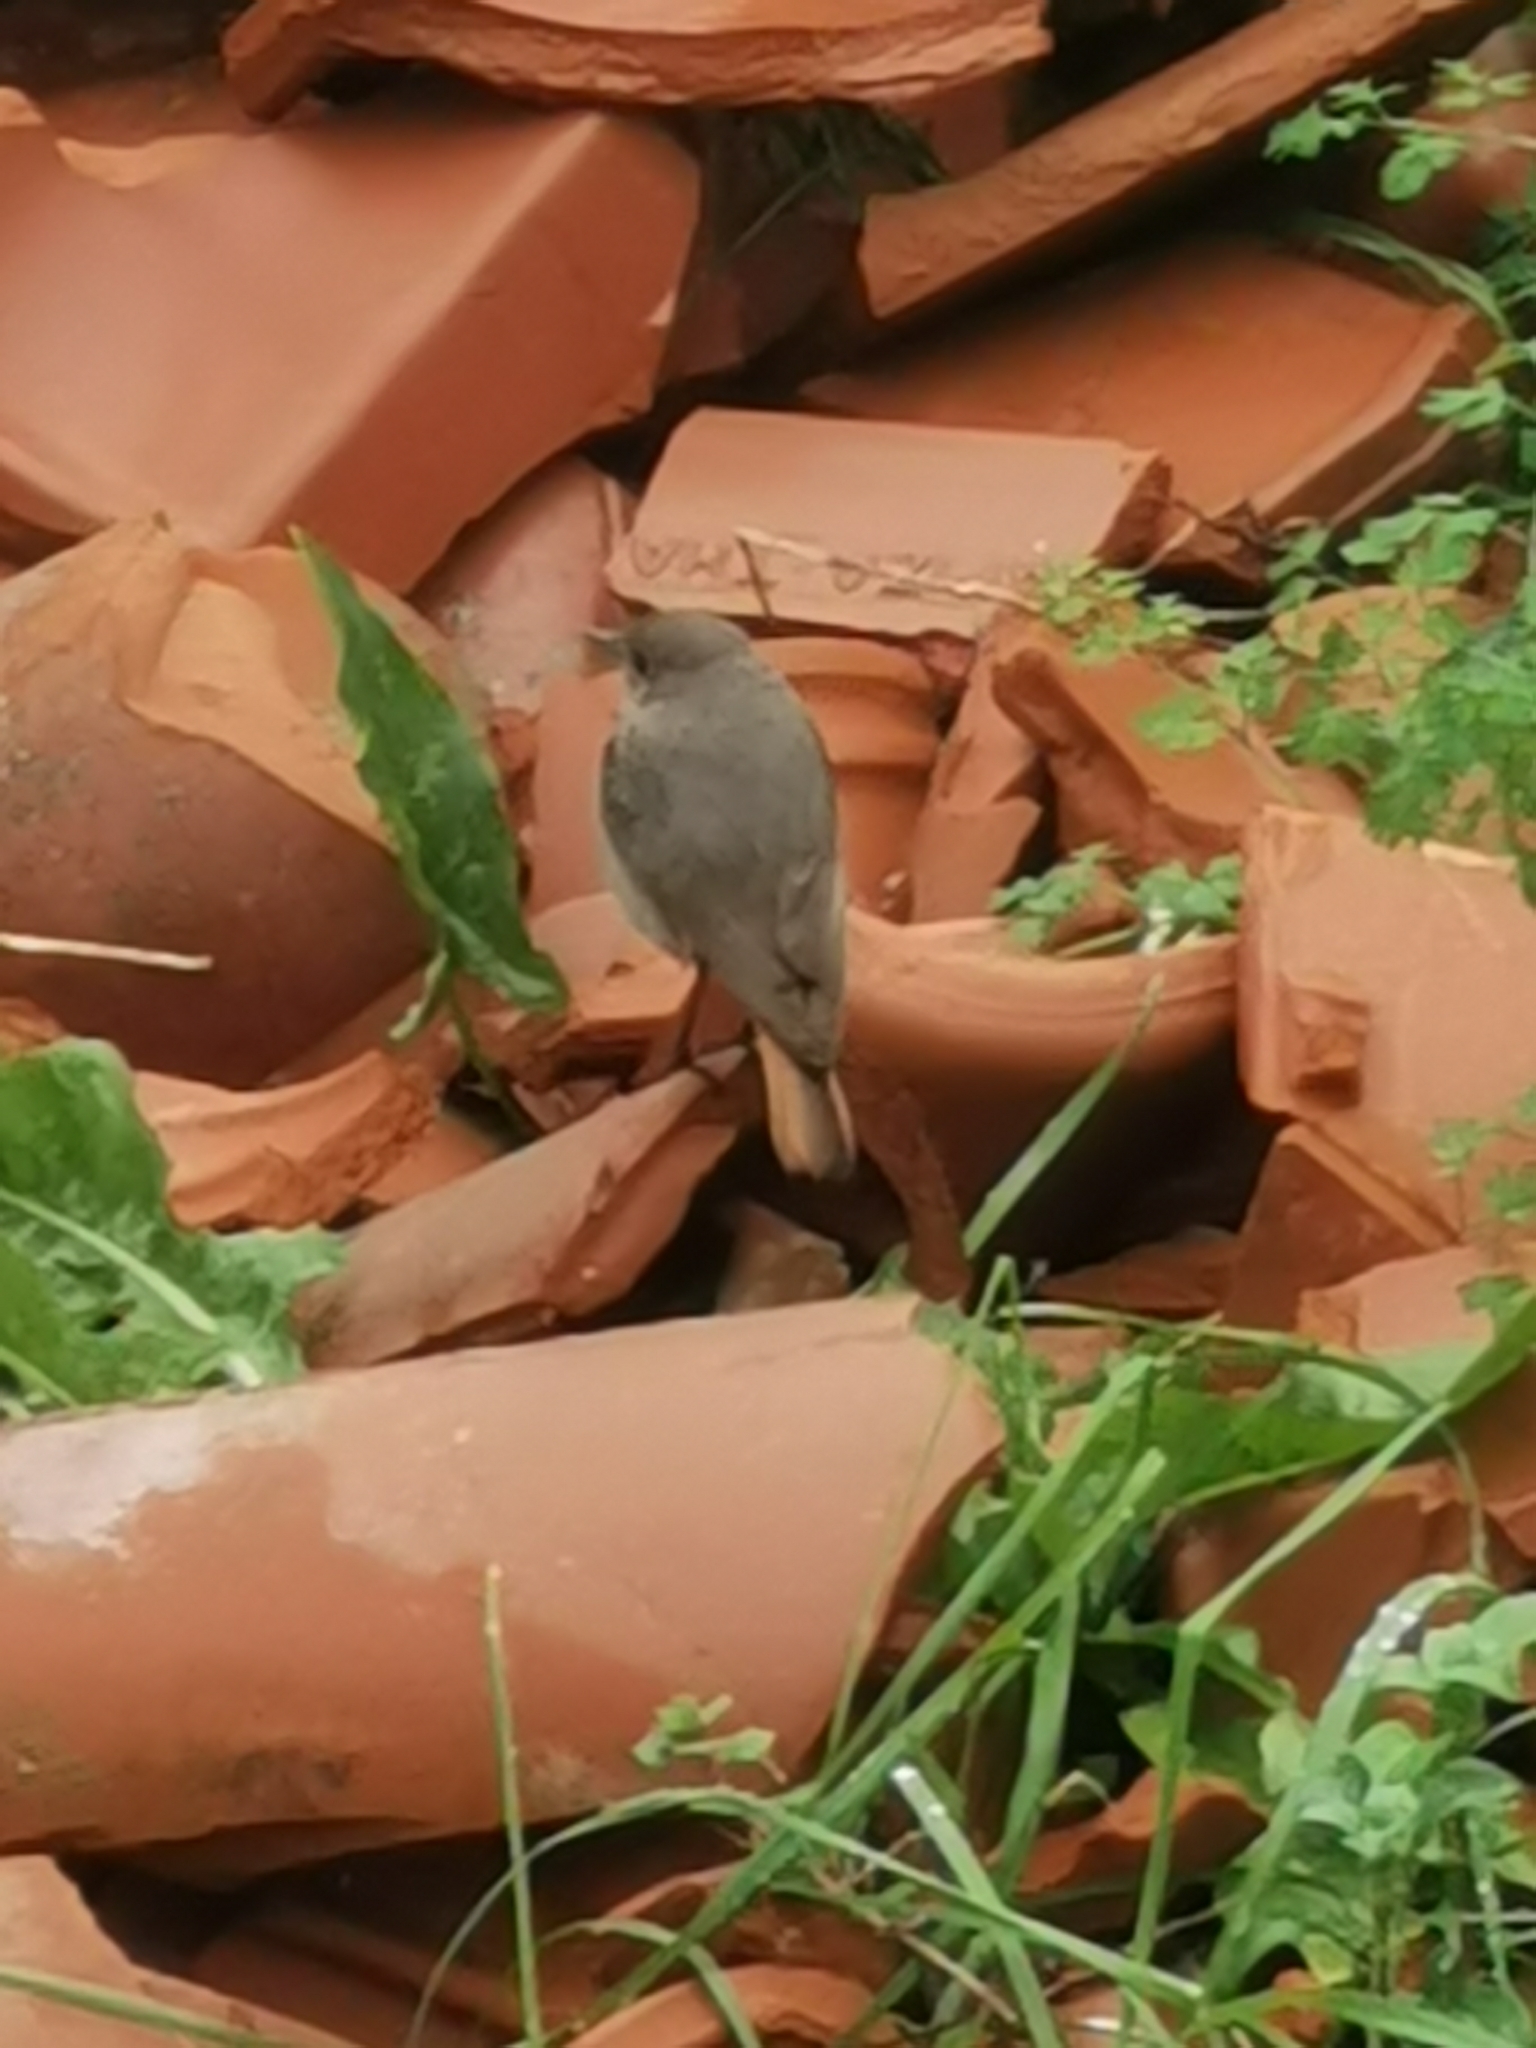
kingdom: Animalia
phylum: Chordata
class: Aves
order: Passeriformes
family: Muscicapidae
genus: Phoenicurus
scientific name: Phoenicurus ochruros
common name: Black redstart
